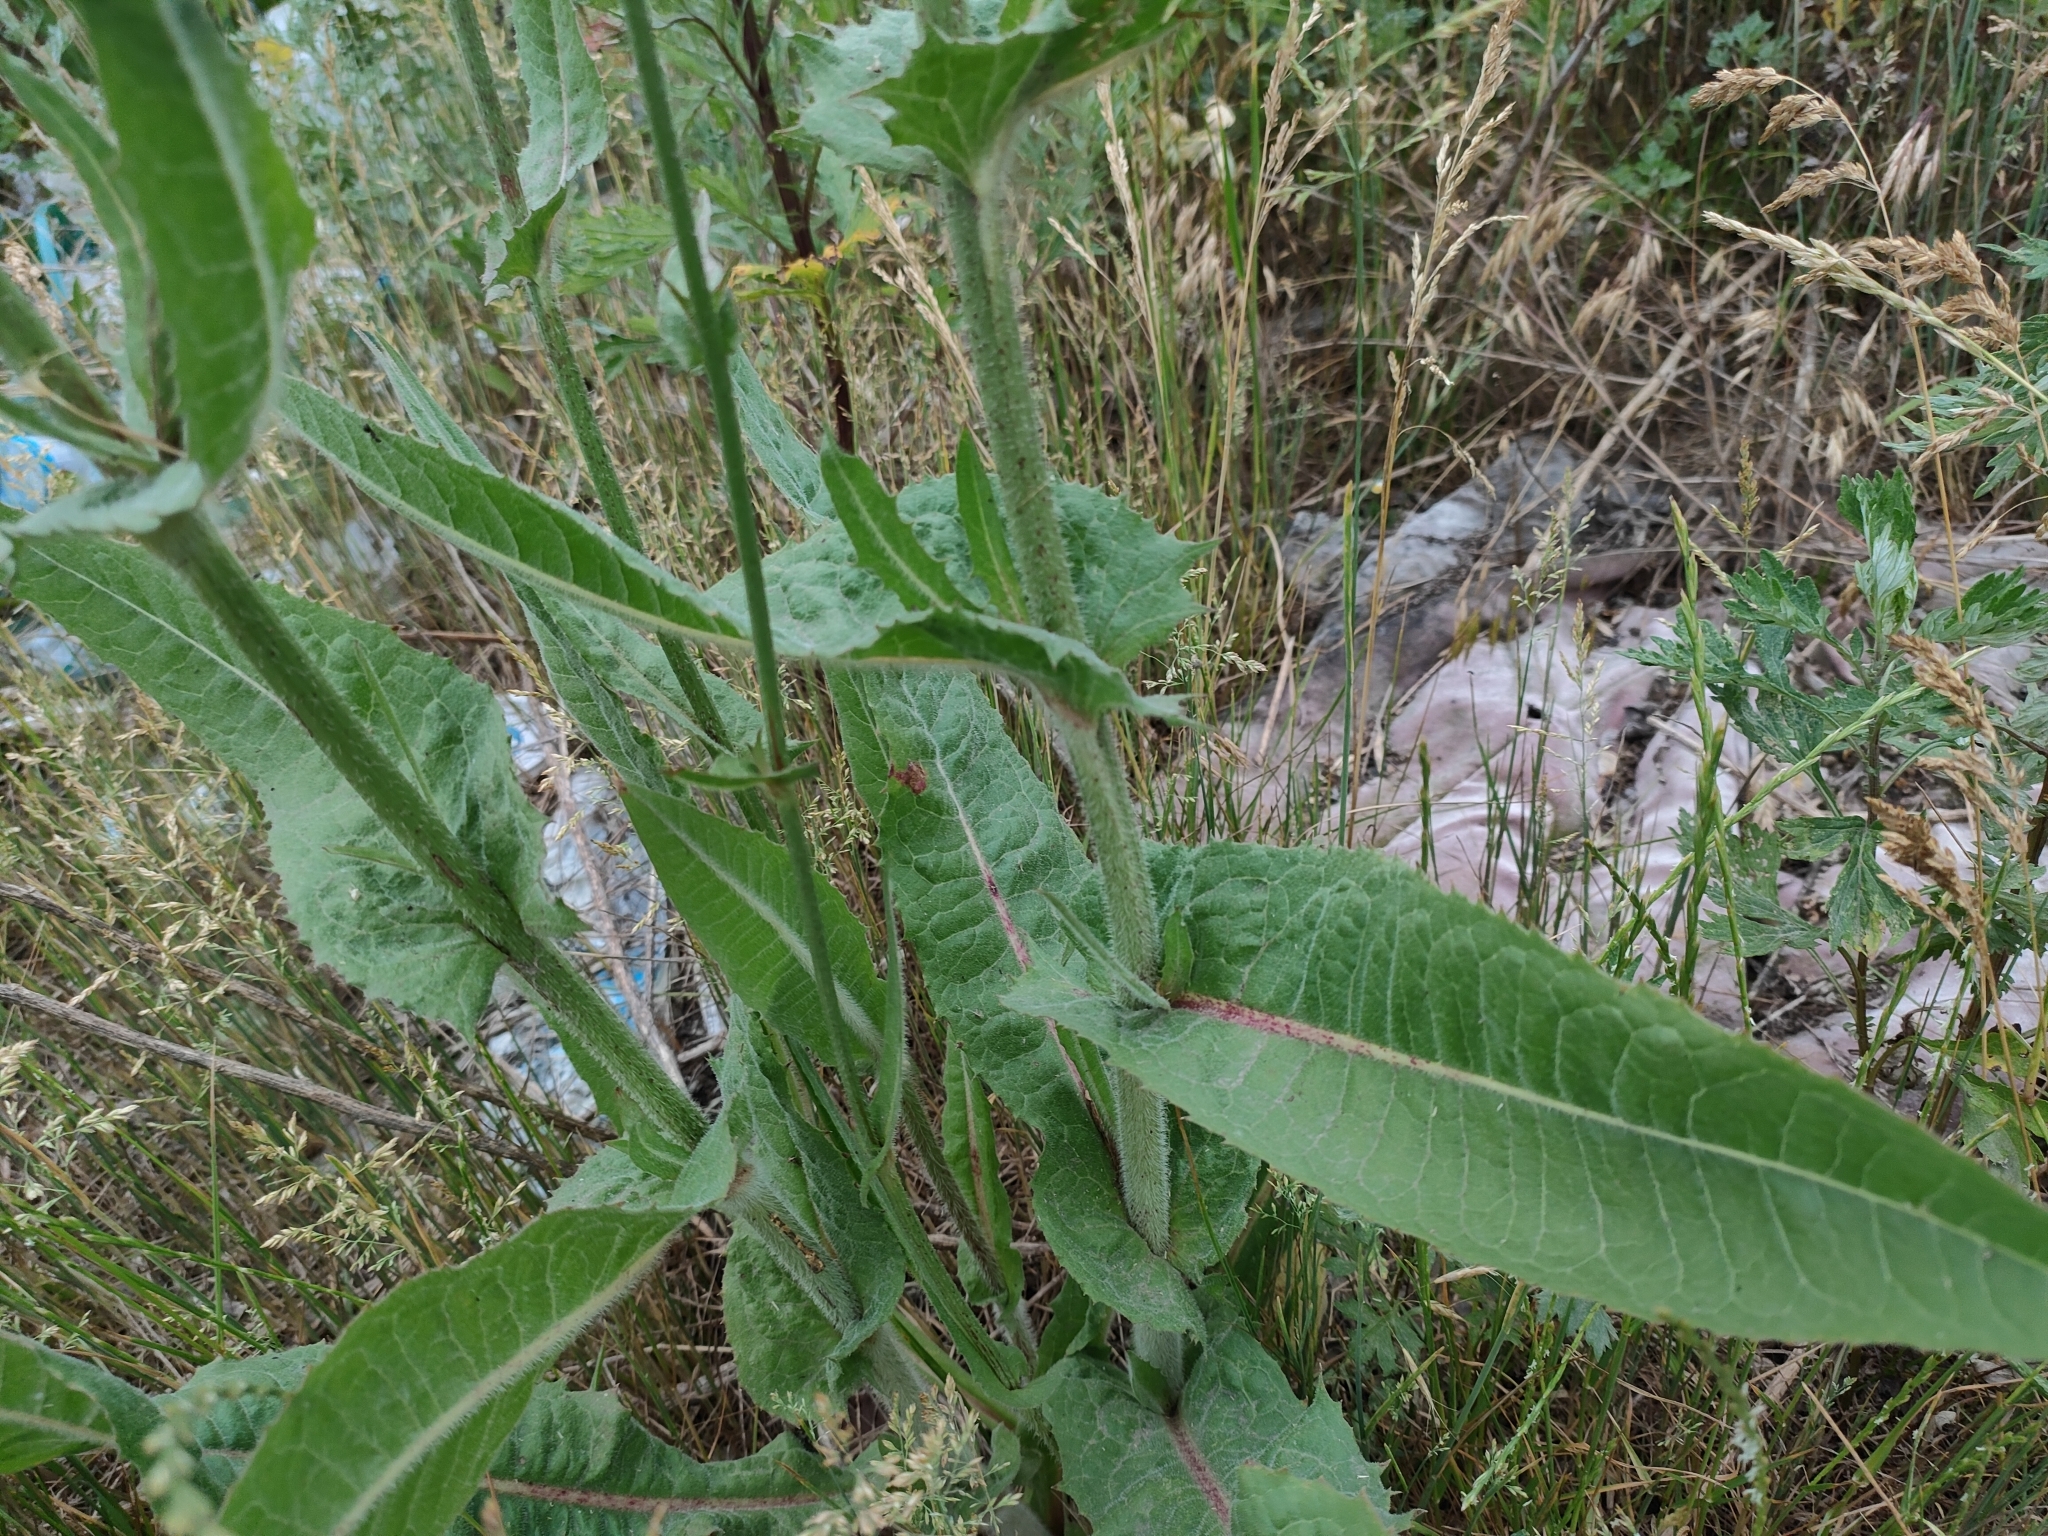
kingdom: Plantae
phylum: Tracheophyta
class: Magnoliopsida
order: Asterales
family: Asteraceae
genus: Cichorium
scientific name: Cichorium intybus
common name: Chicory
